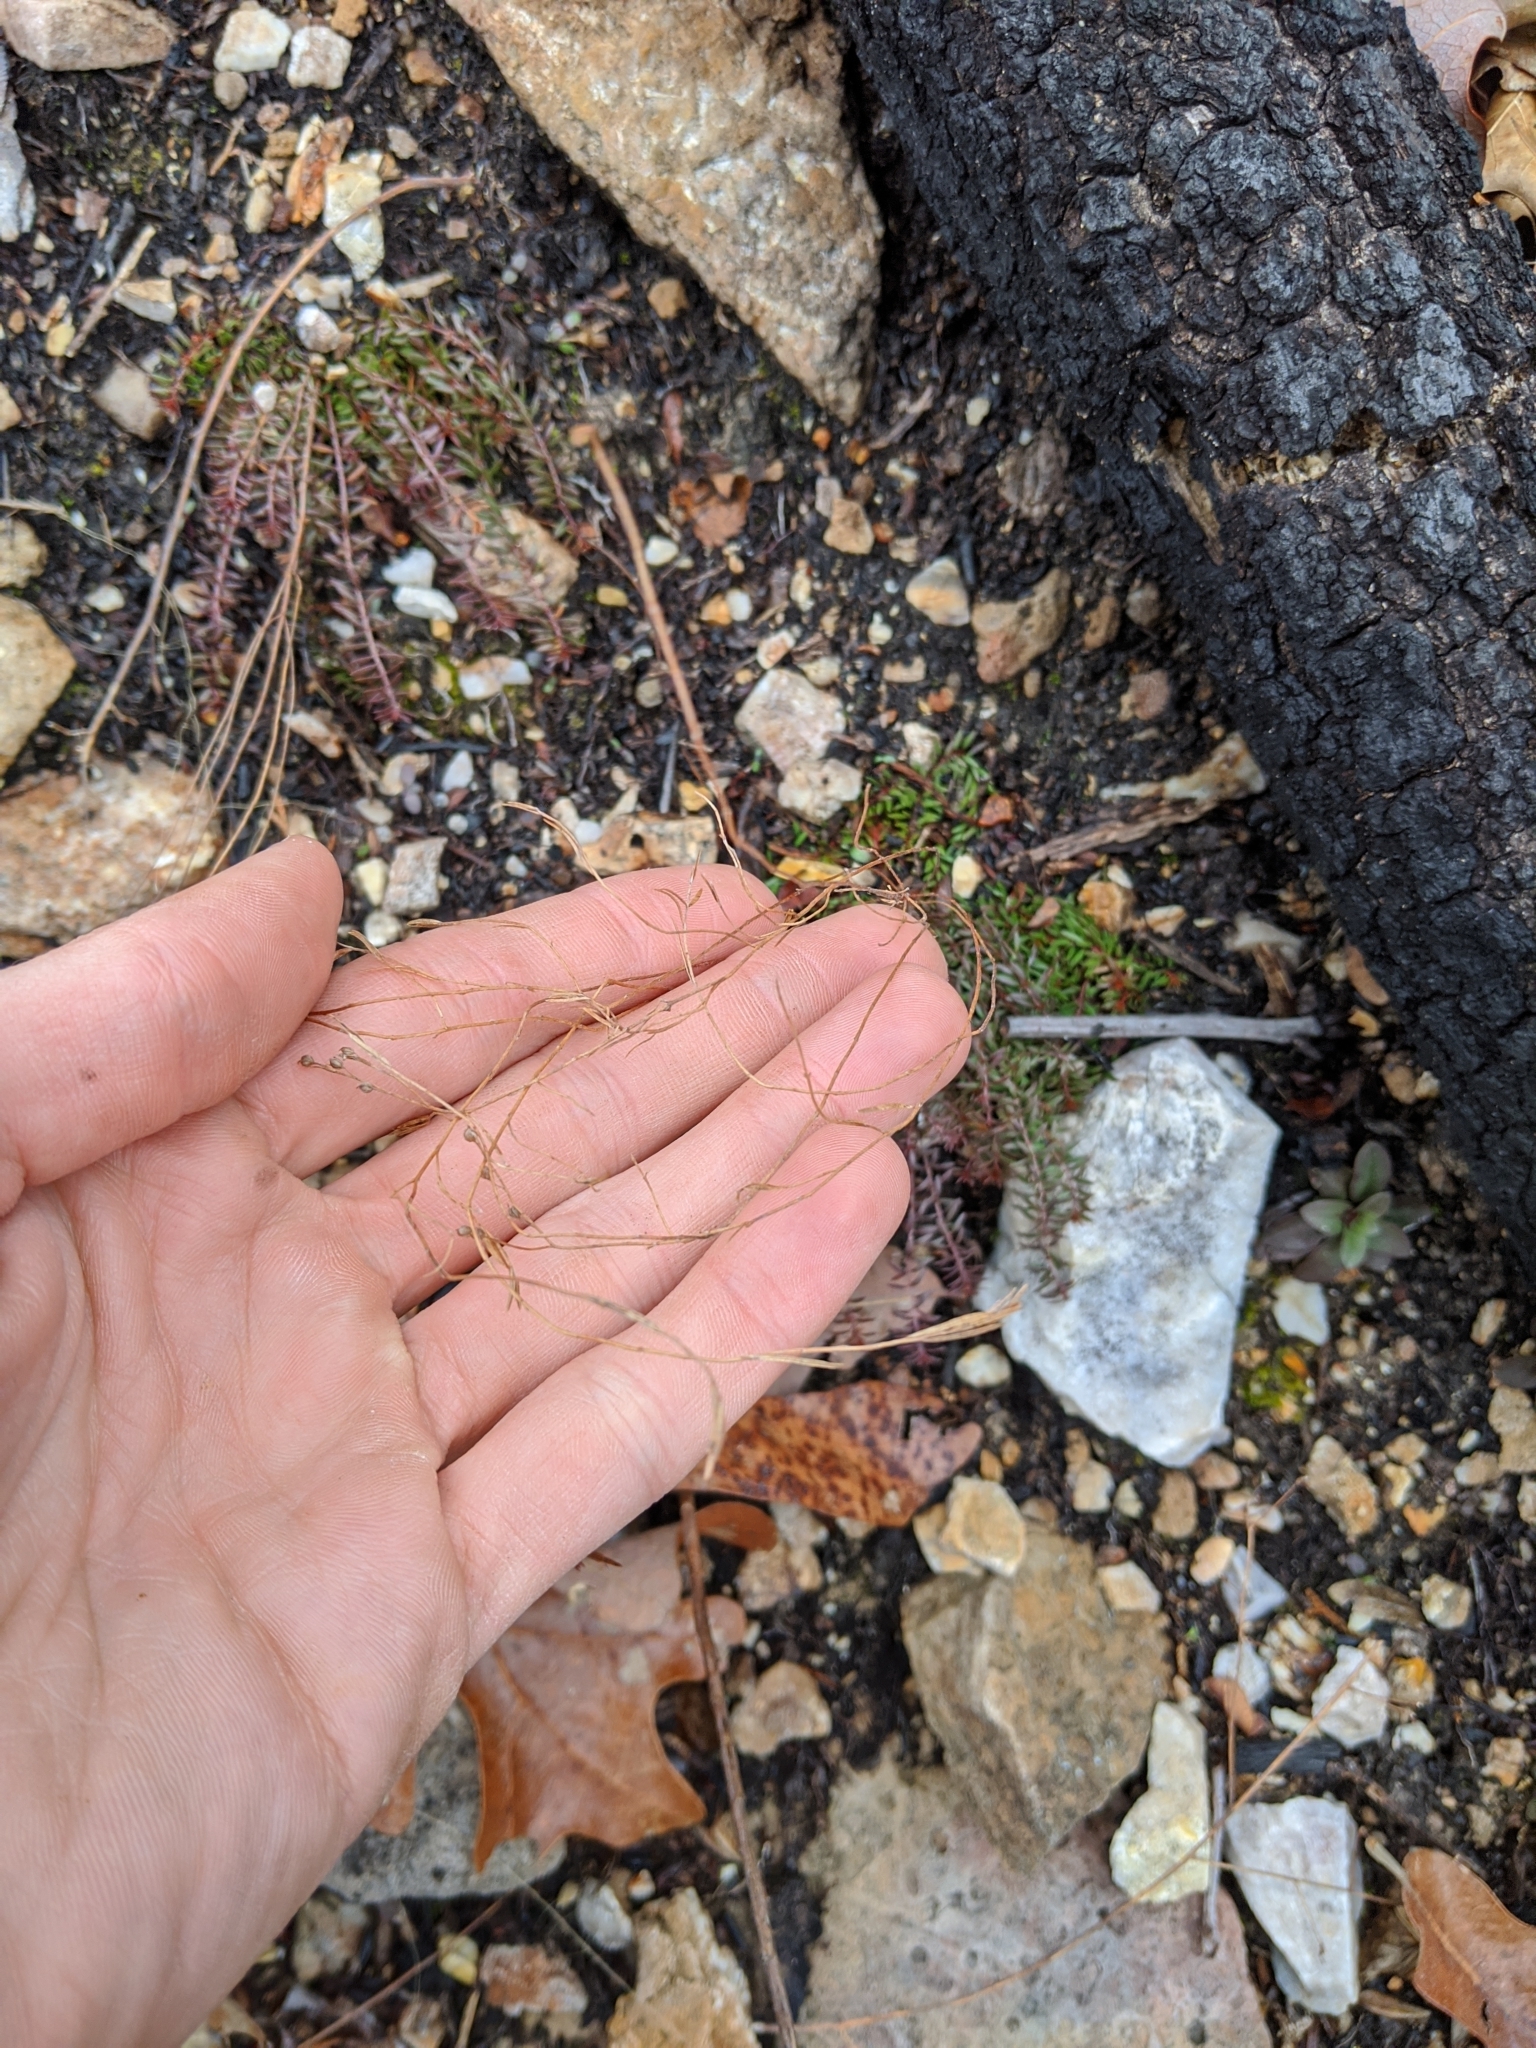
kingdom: Plantae
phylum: Tracheophyta
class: Magnoliopsida
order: Malvales
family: Cistaceae
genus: Lechea
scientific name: Lechea tenuifolia
